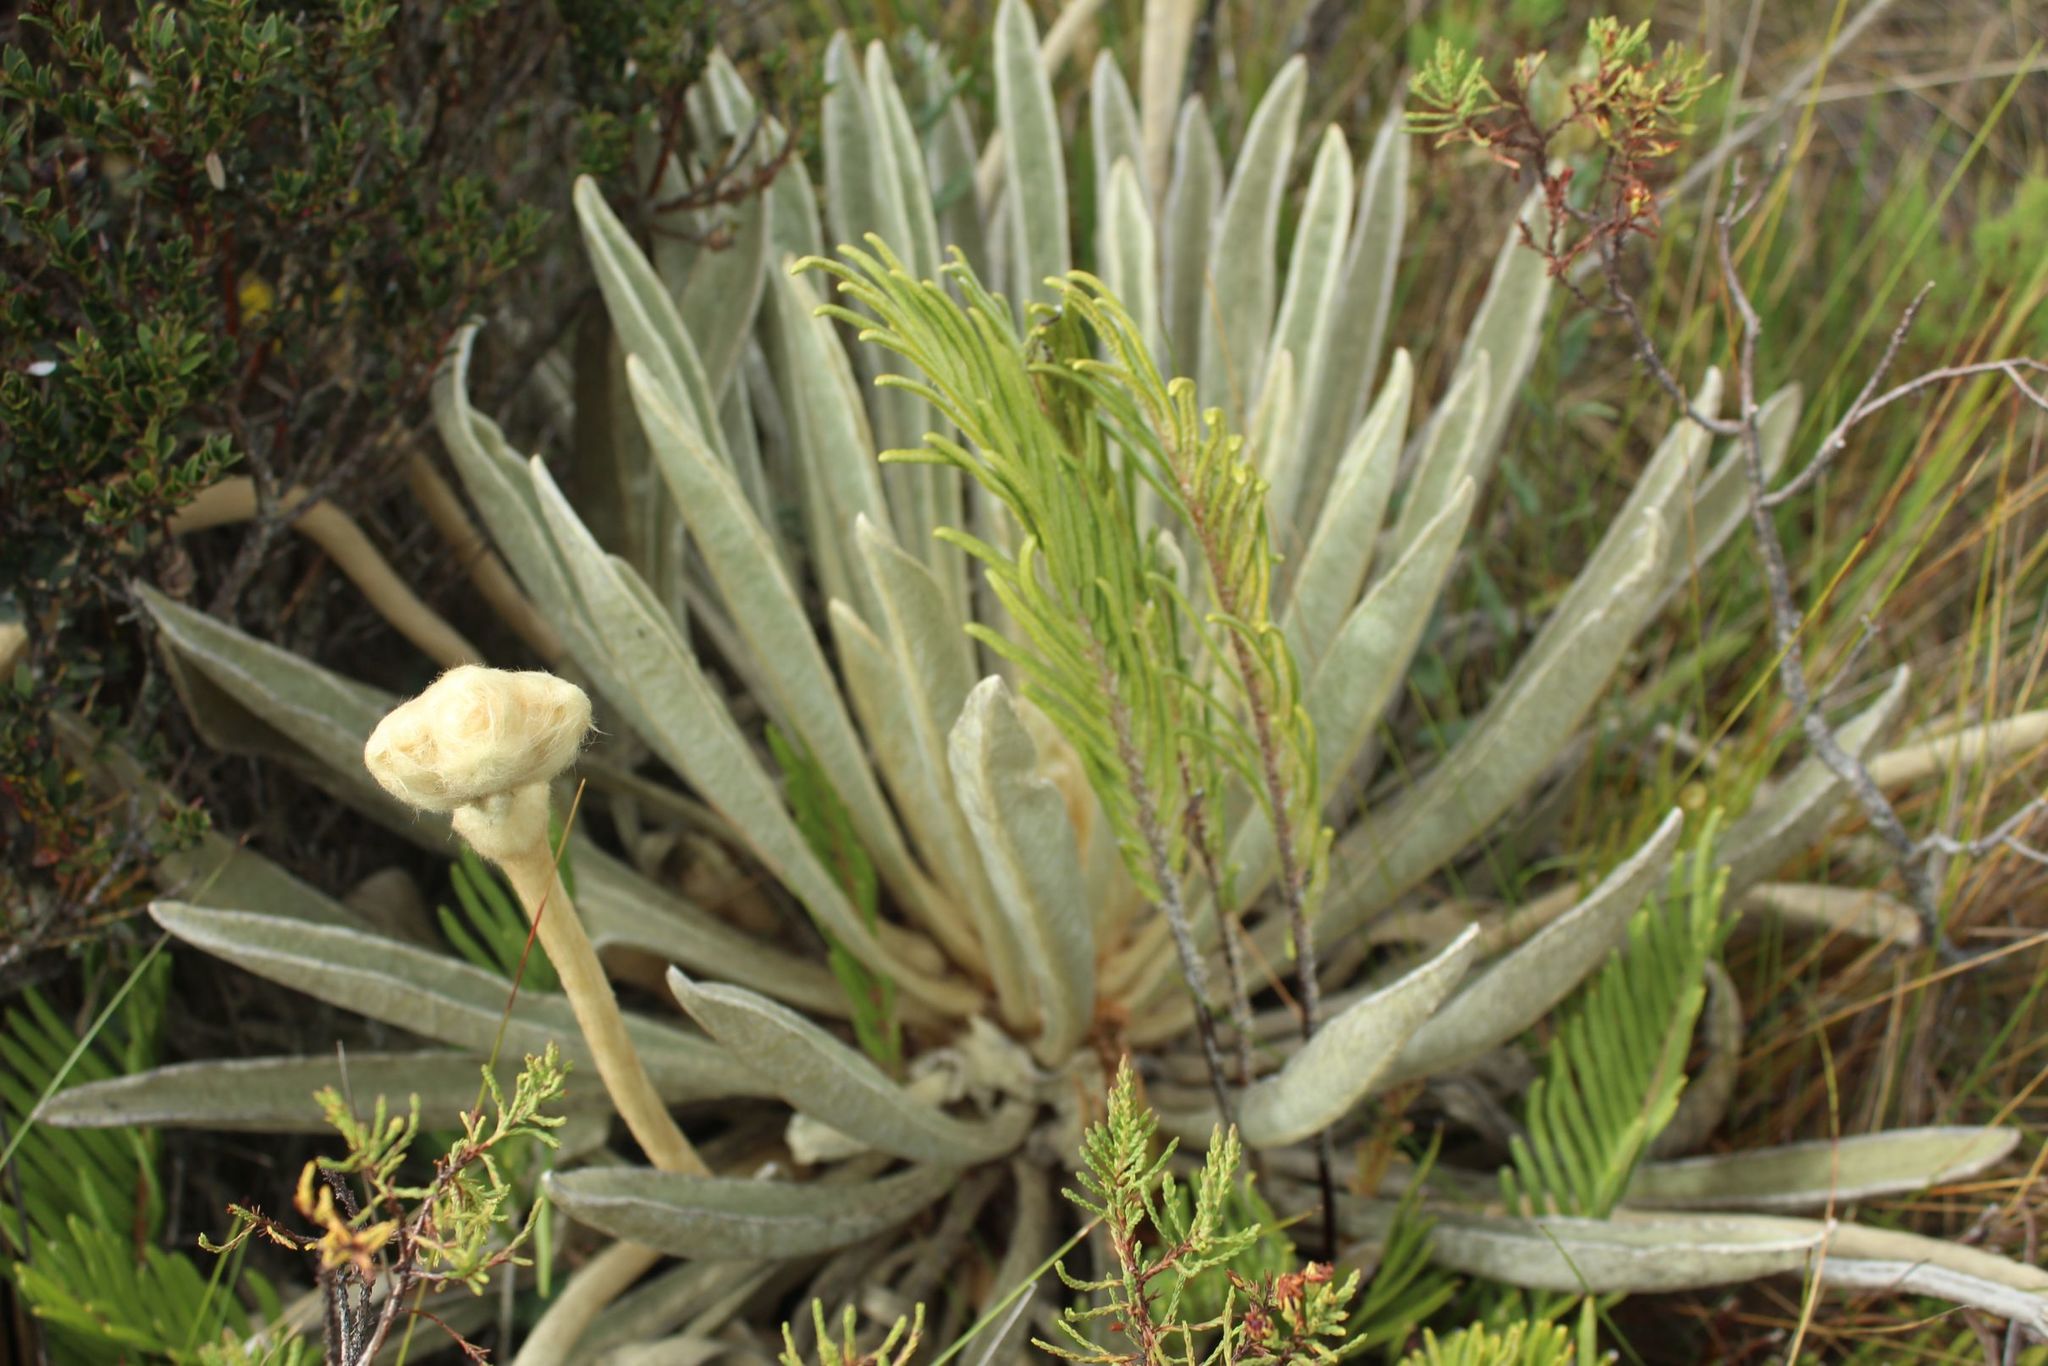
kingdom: Plantae
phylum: Tracheophyta
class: Magnoliopsida
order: Asterales
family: Asteraceae
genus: Espeletia
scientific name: Espeletia congestiflora
